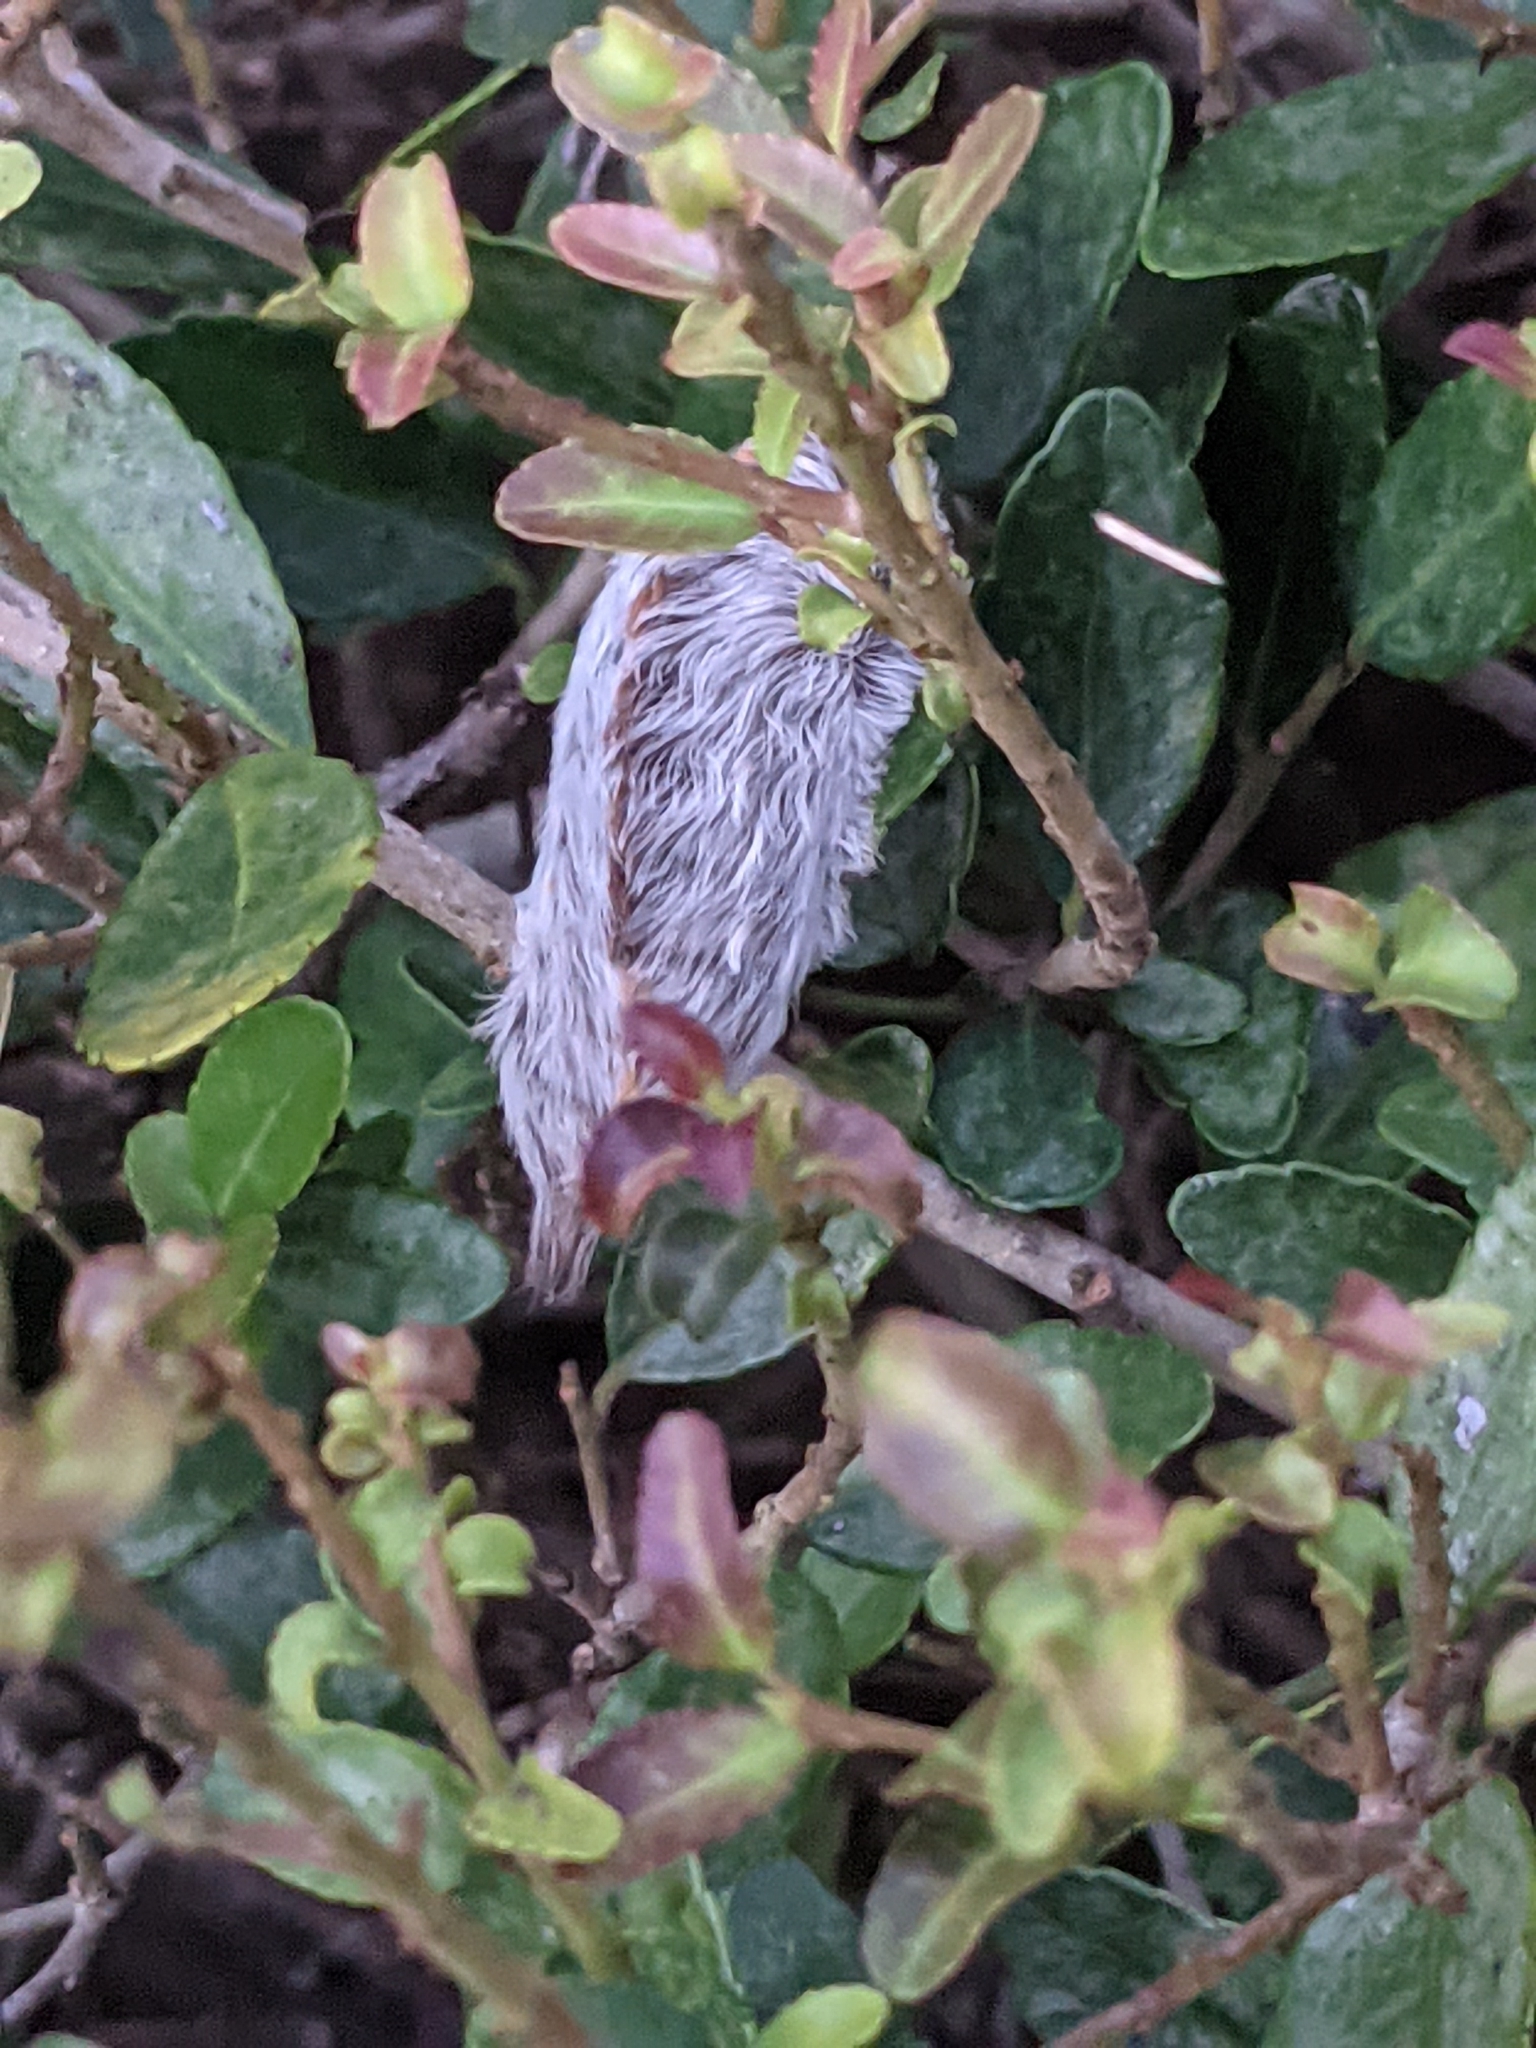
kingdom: Animalia
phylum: Arthropoda
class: Insecta
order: Lepidoptera
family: Megalopygidae
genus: Megalopyge
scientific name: Megalopyge opercularis
